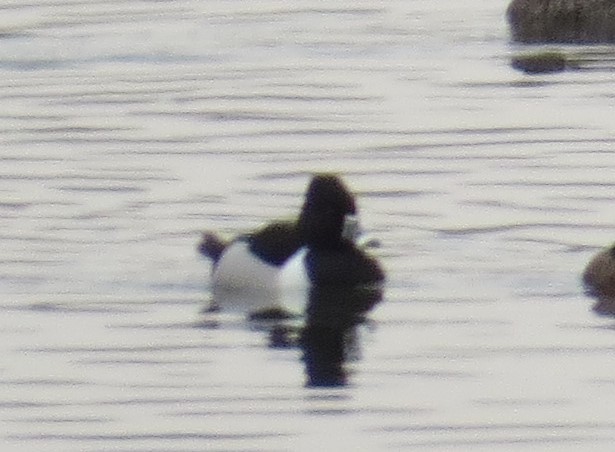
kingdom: Animalia
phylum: Chordata
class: Aves
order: Anseriformes
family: Anatidae
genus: Aythya
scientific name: Aythya collaris
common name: Ring-necked duck
